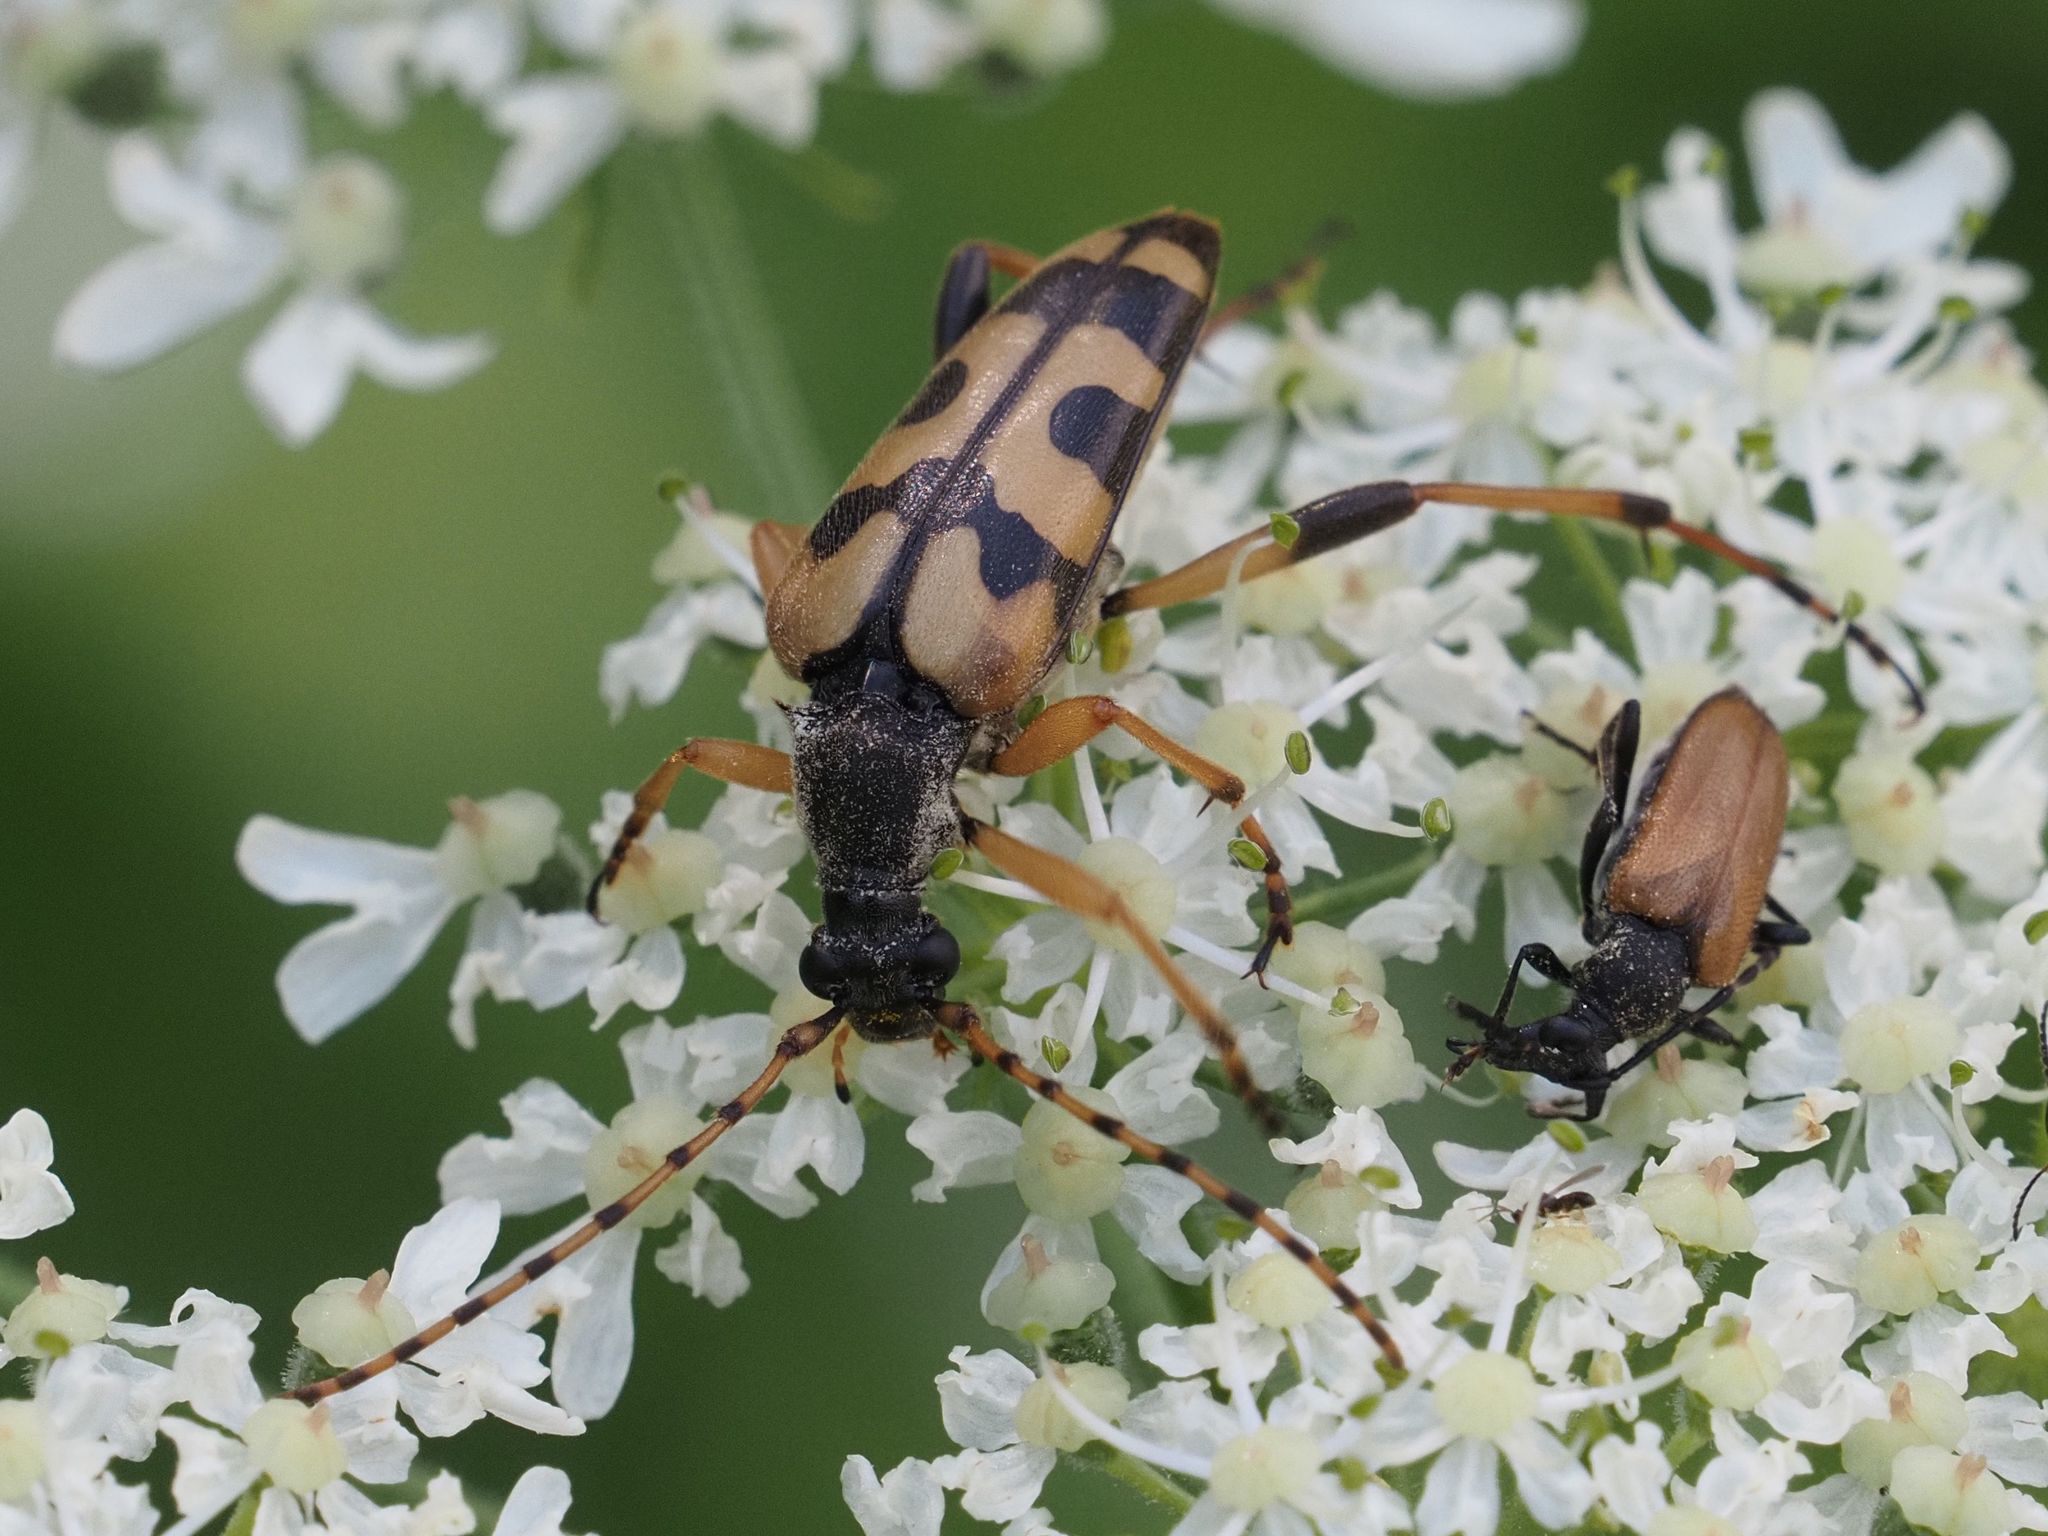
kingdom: Animalia
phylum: Arthropoda
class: Insecta
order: Coleoptera
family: Cerambycidae
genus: Rutpela
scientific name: Rutpela maculata
